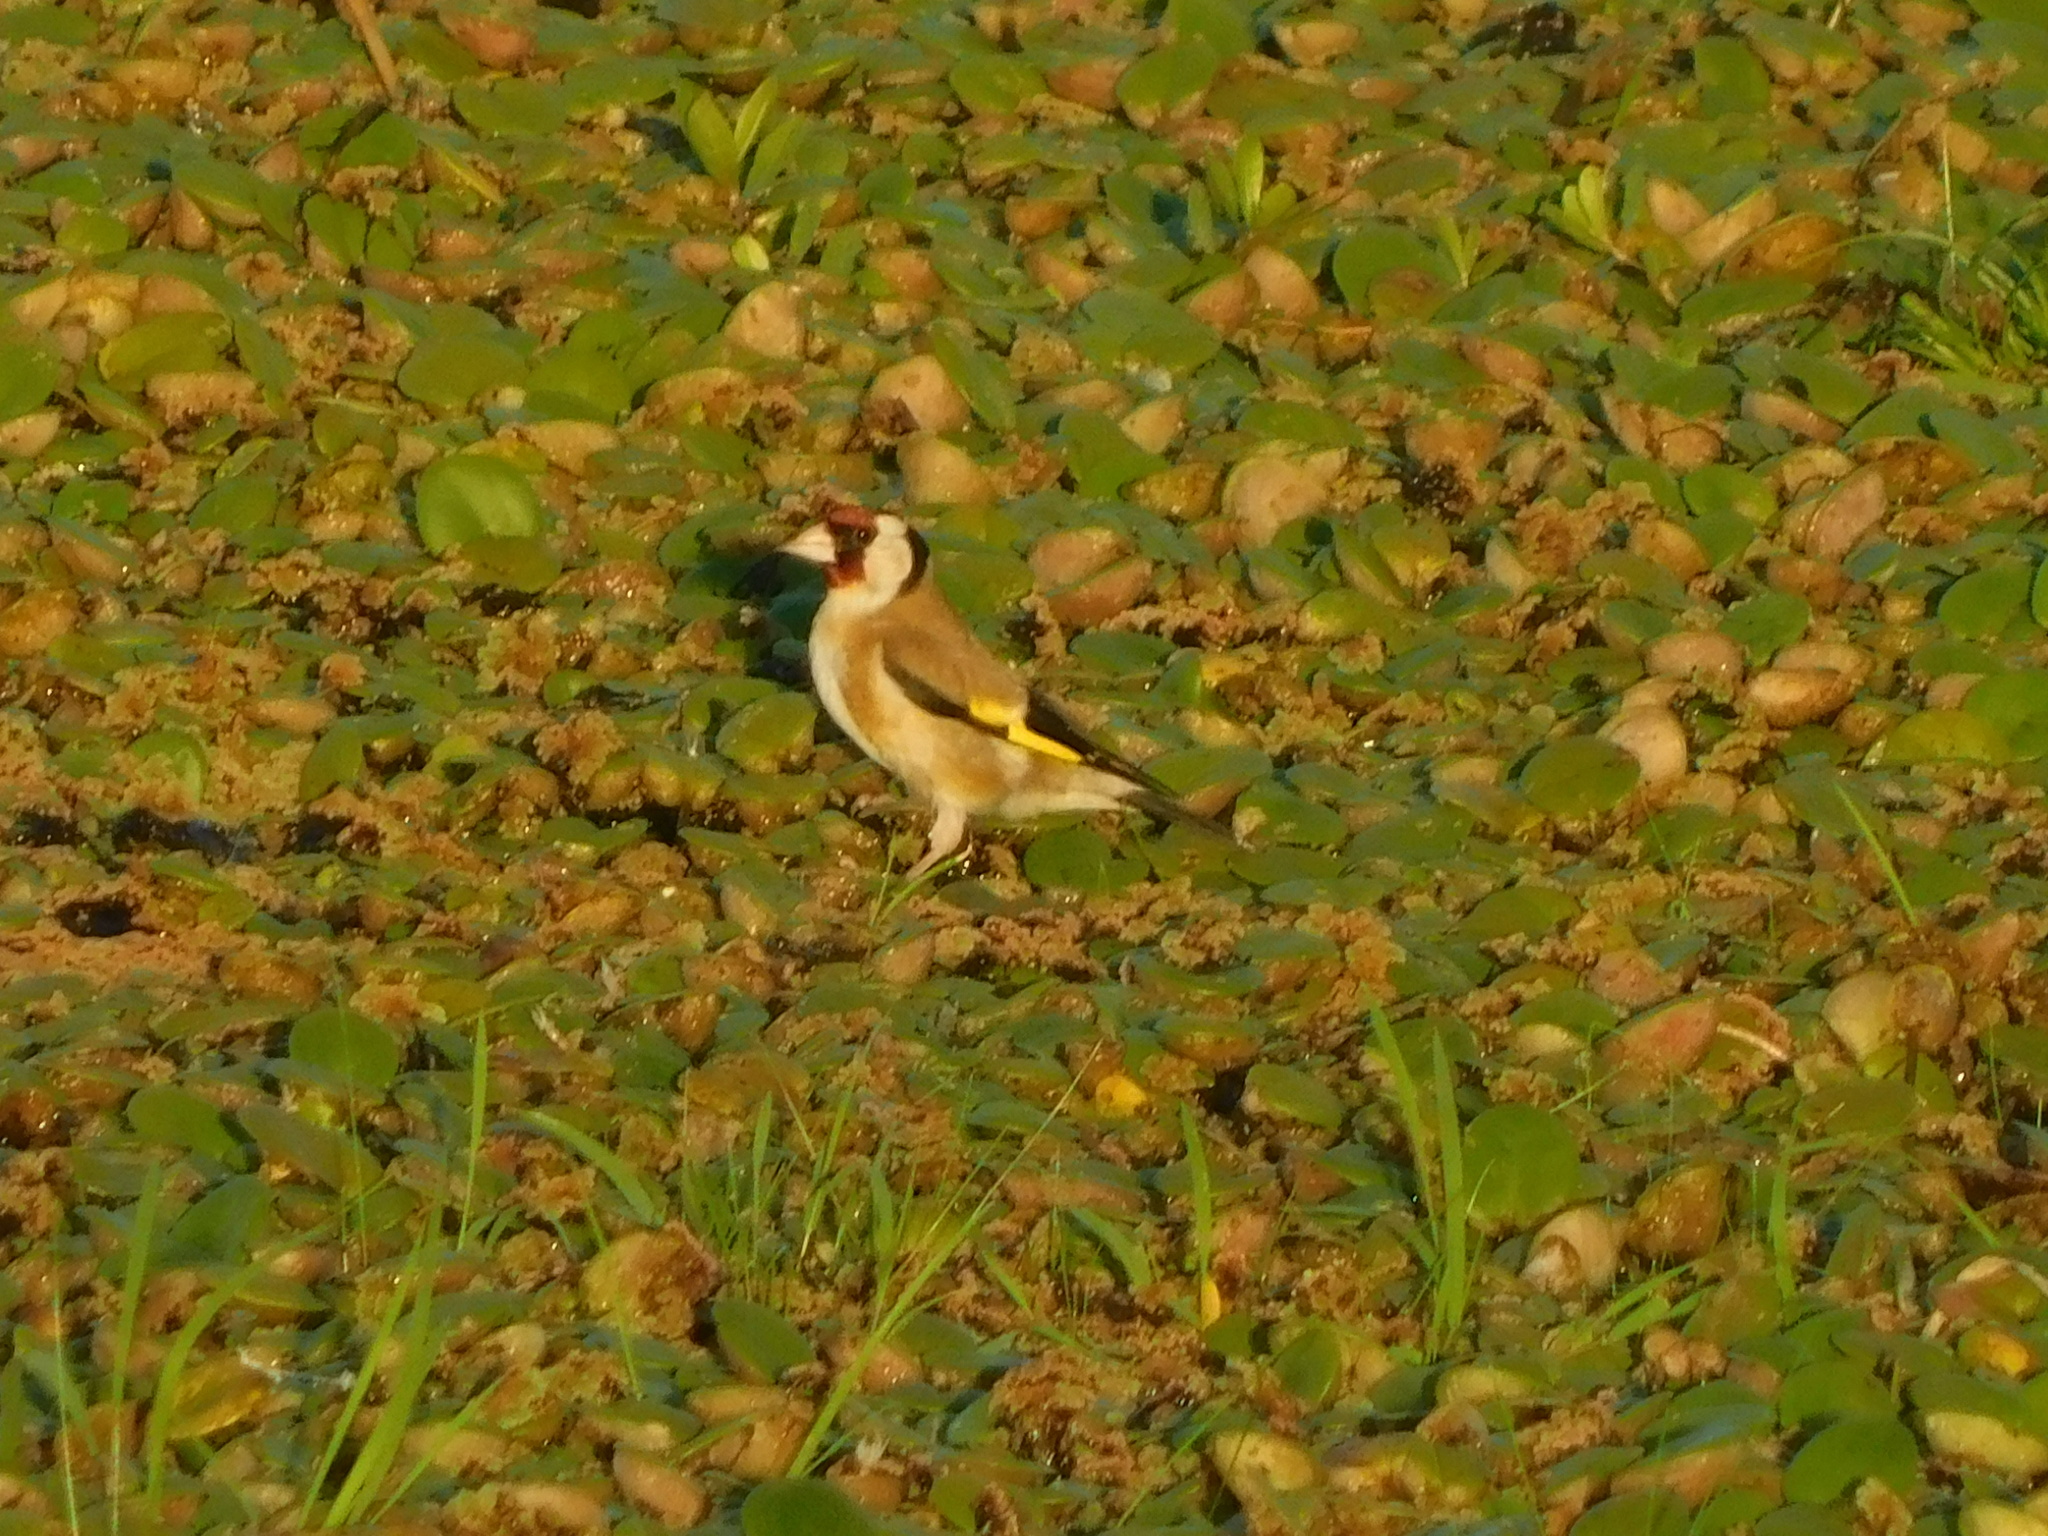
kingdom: Animalia
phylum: Chordata
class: Aves
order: Passeriformes
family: Fringillidae
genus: Carduelis
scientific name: Carduelis carduelis
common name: European goldfinch
